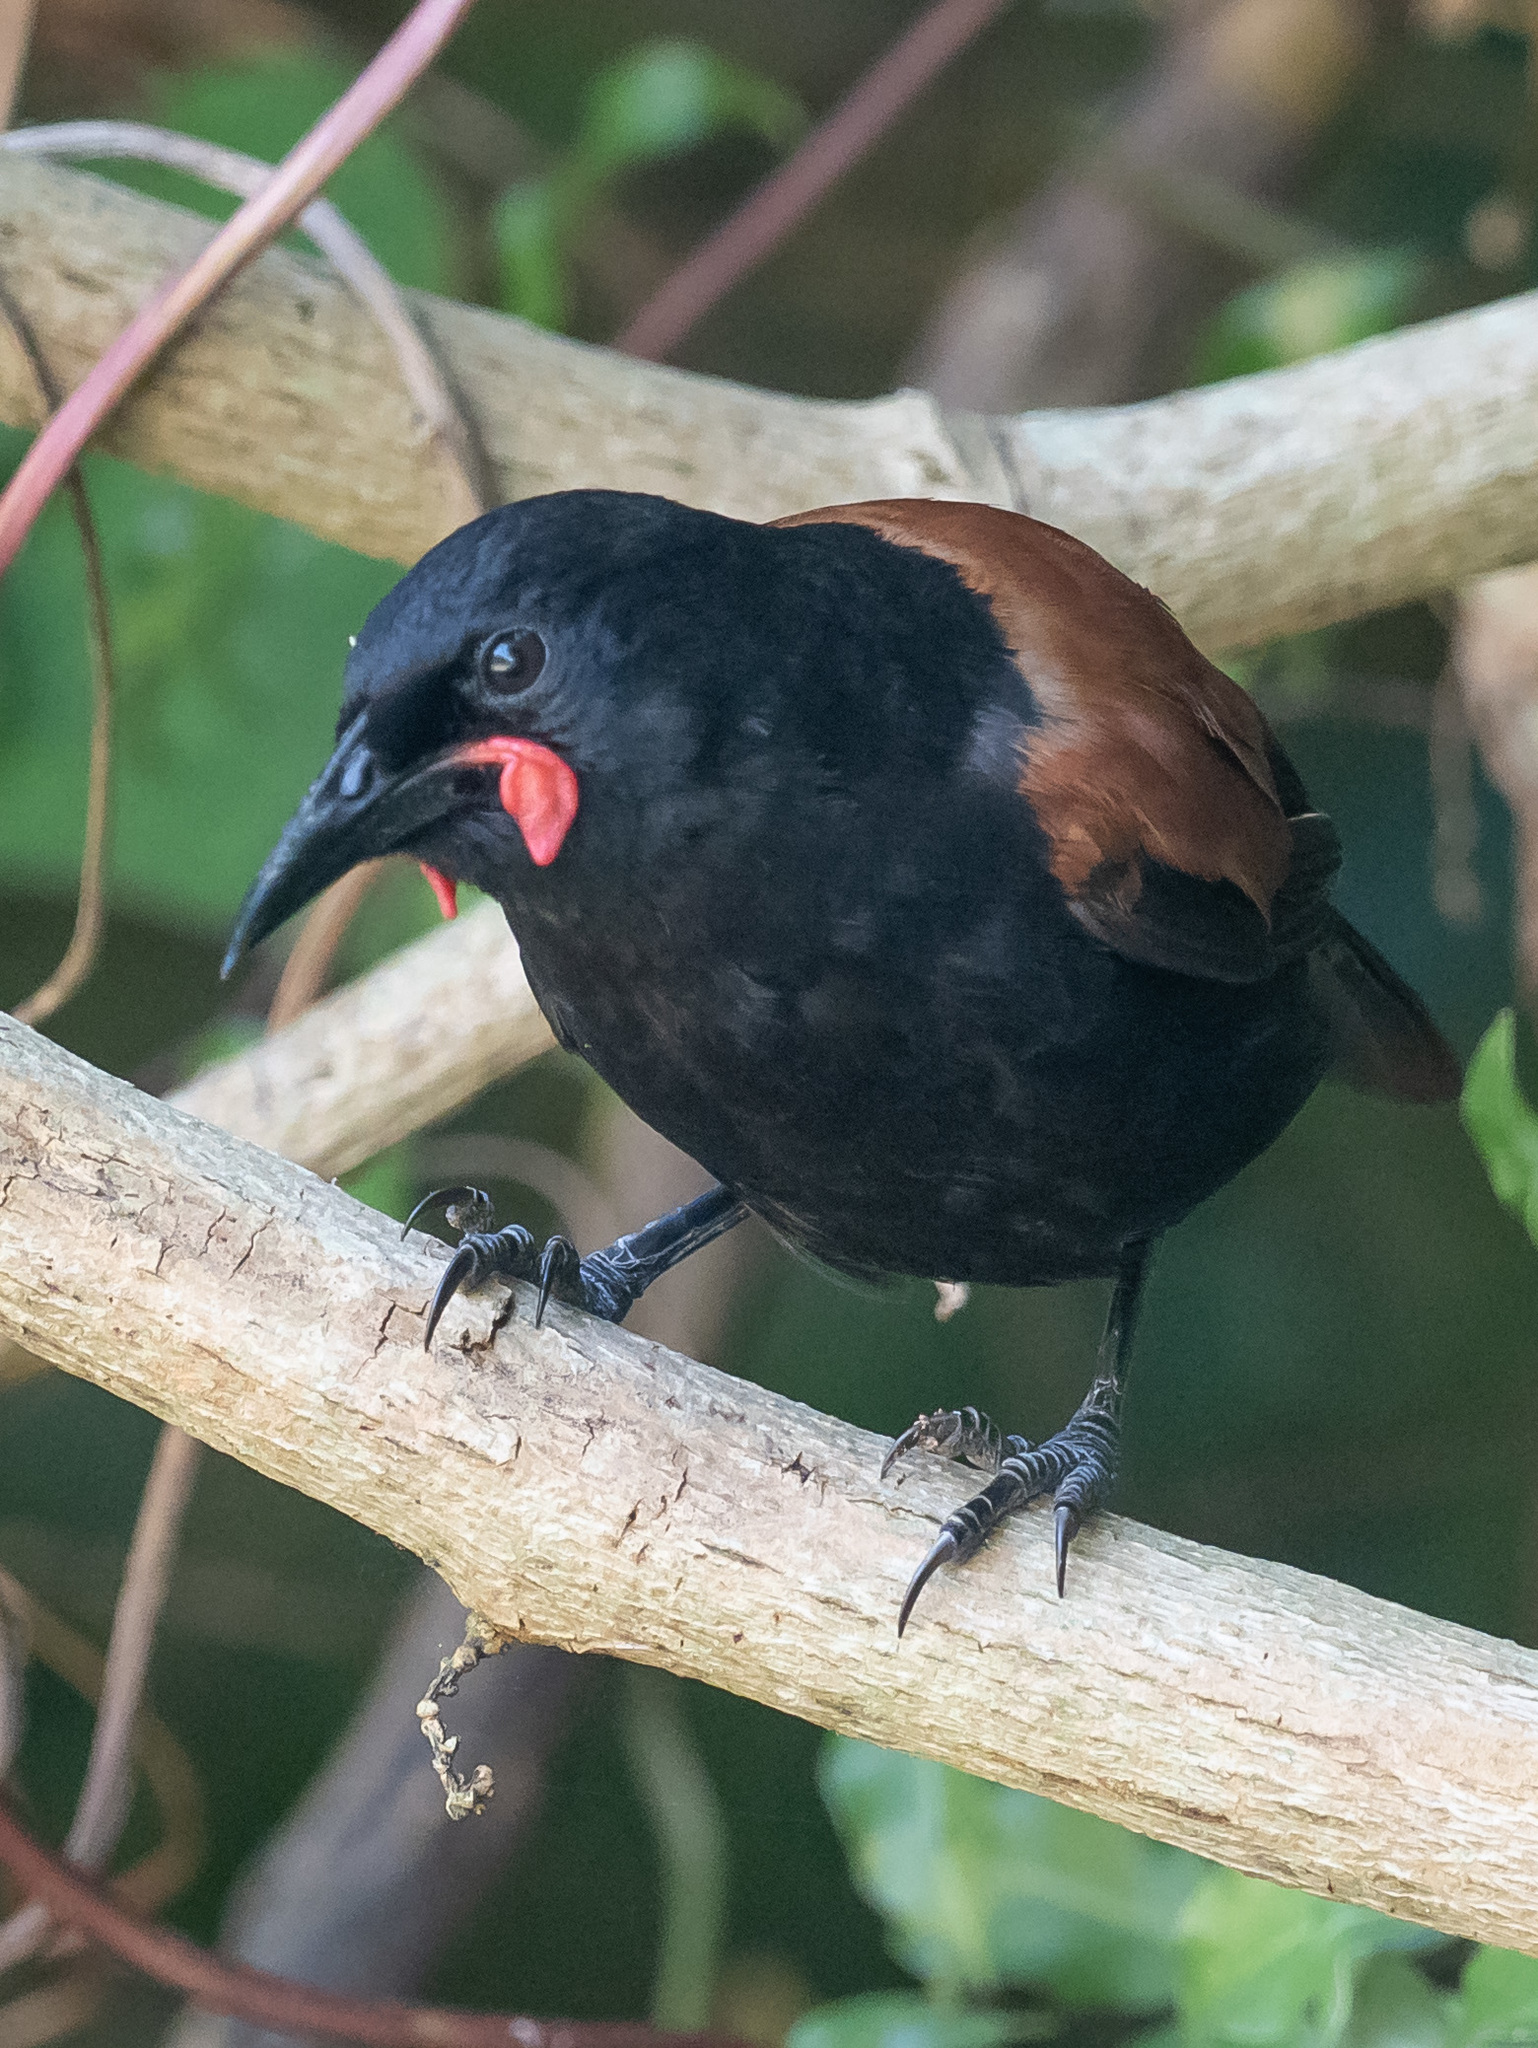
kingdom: Animalia
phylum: Chordata
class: Aves
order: Passeriformes
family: Callaeatidae
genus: Philesturnus
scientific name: Philesturnus carunculatus
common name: South island saddleback
